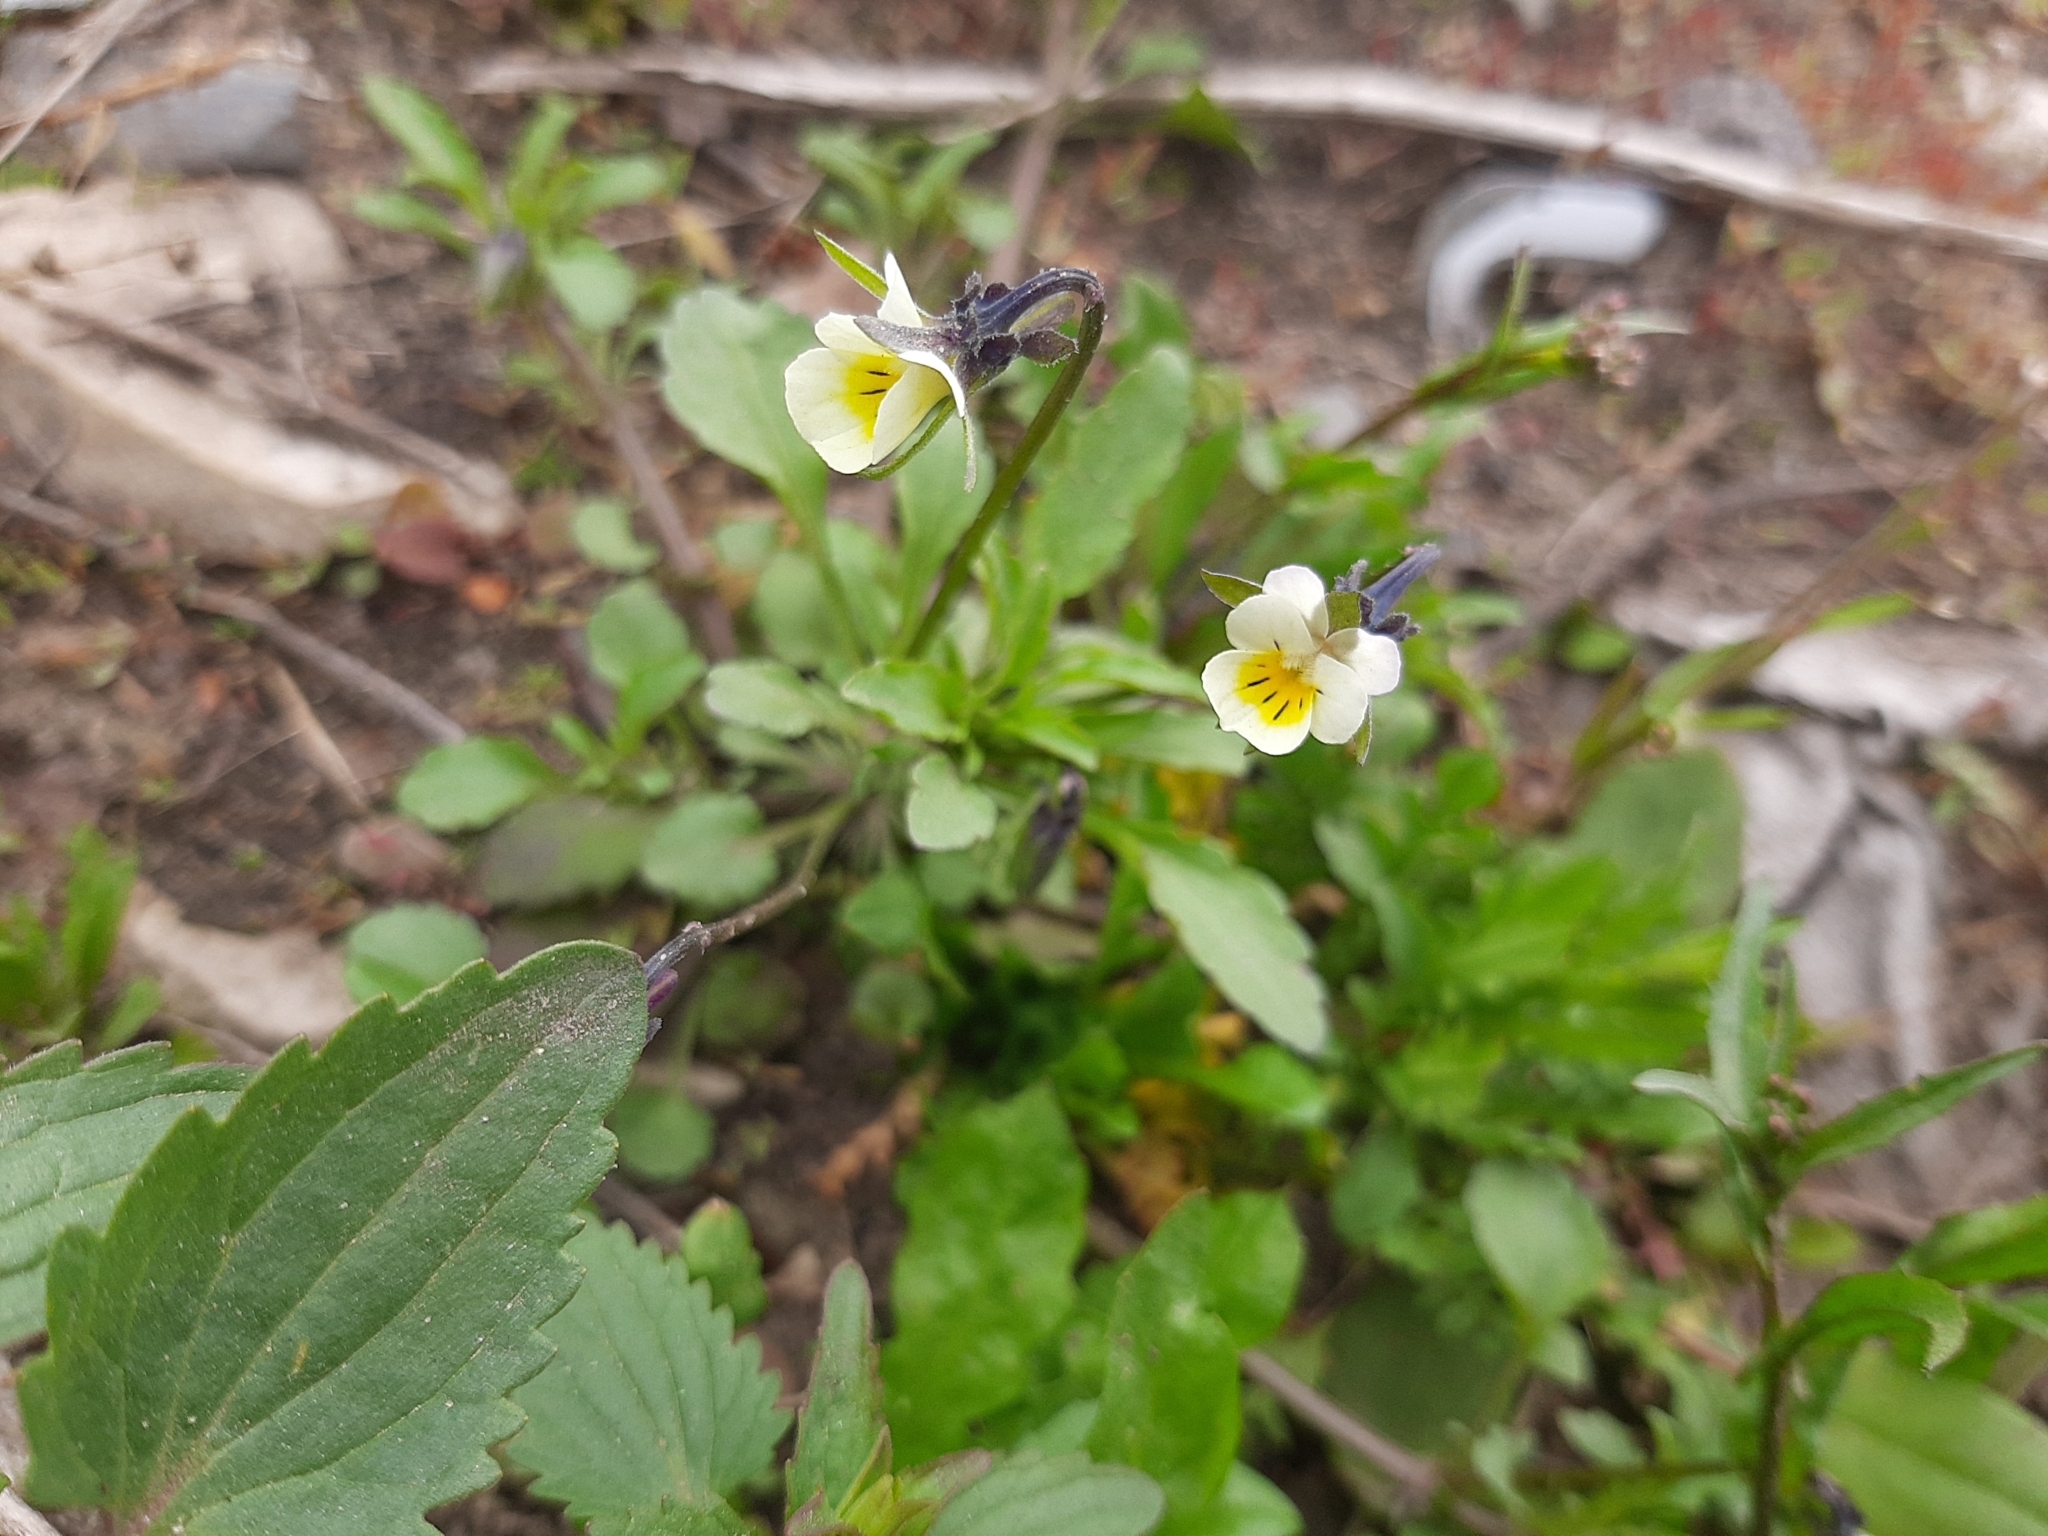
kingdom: Plantae
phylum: Tracheophyta
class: Magnoliopsida
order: Malpighiales
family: Violaceae
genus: Viola
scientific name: Viola arvensis
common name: Field pansy
